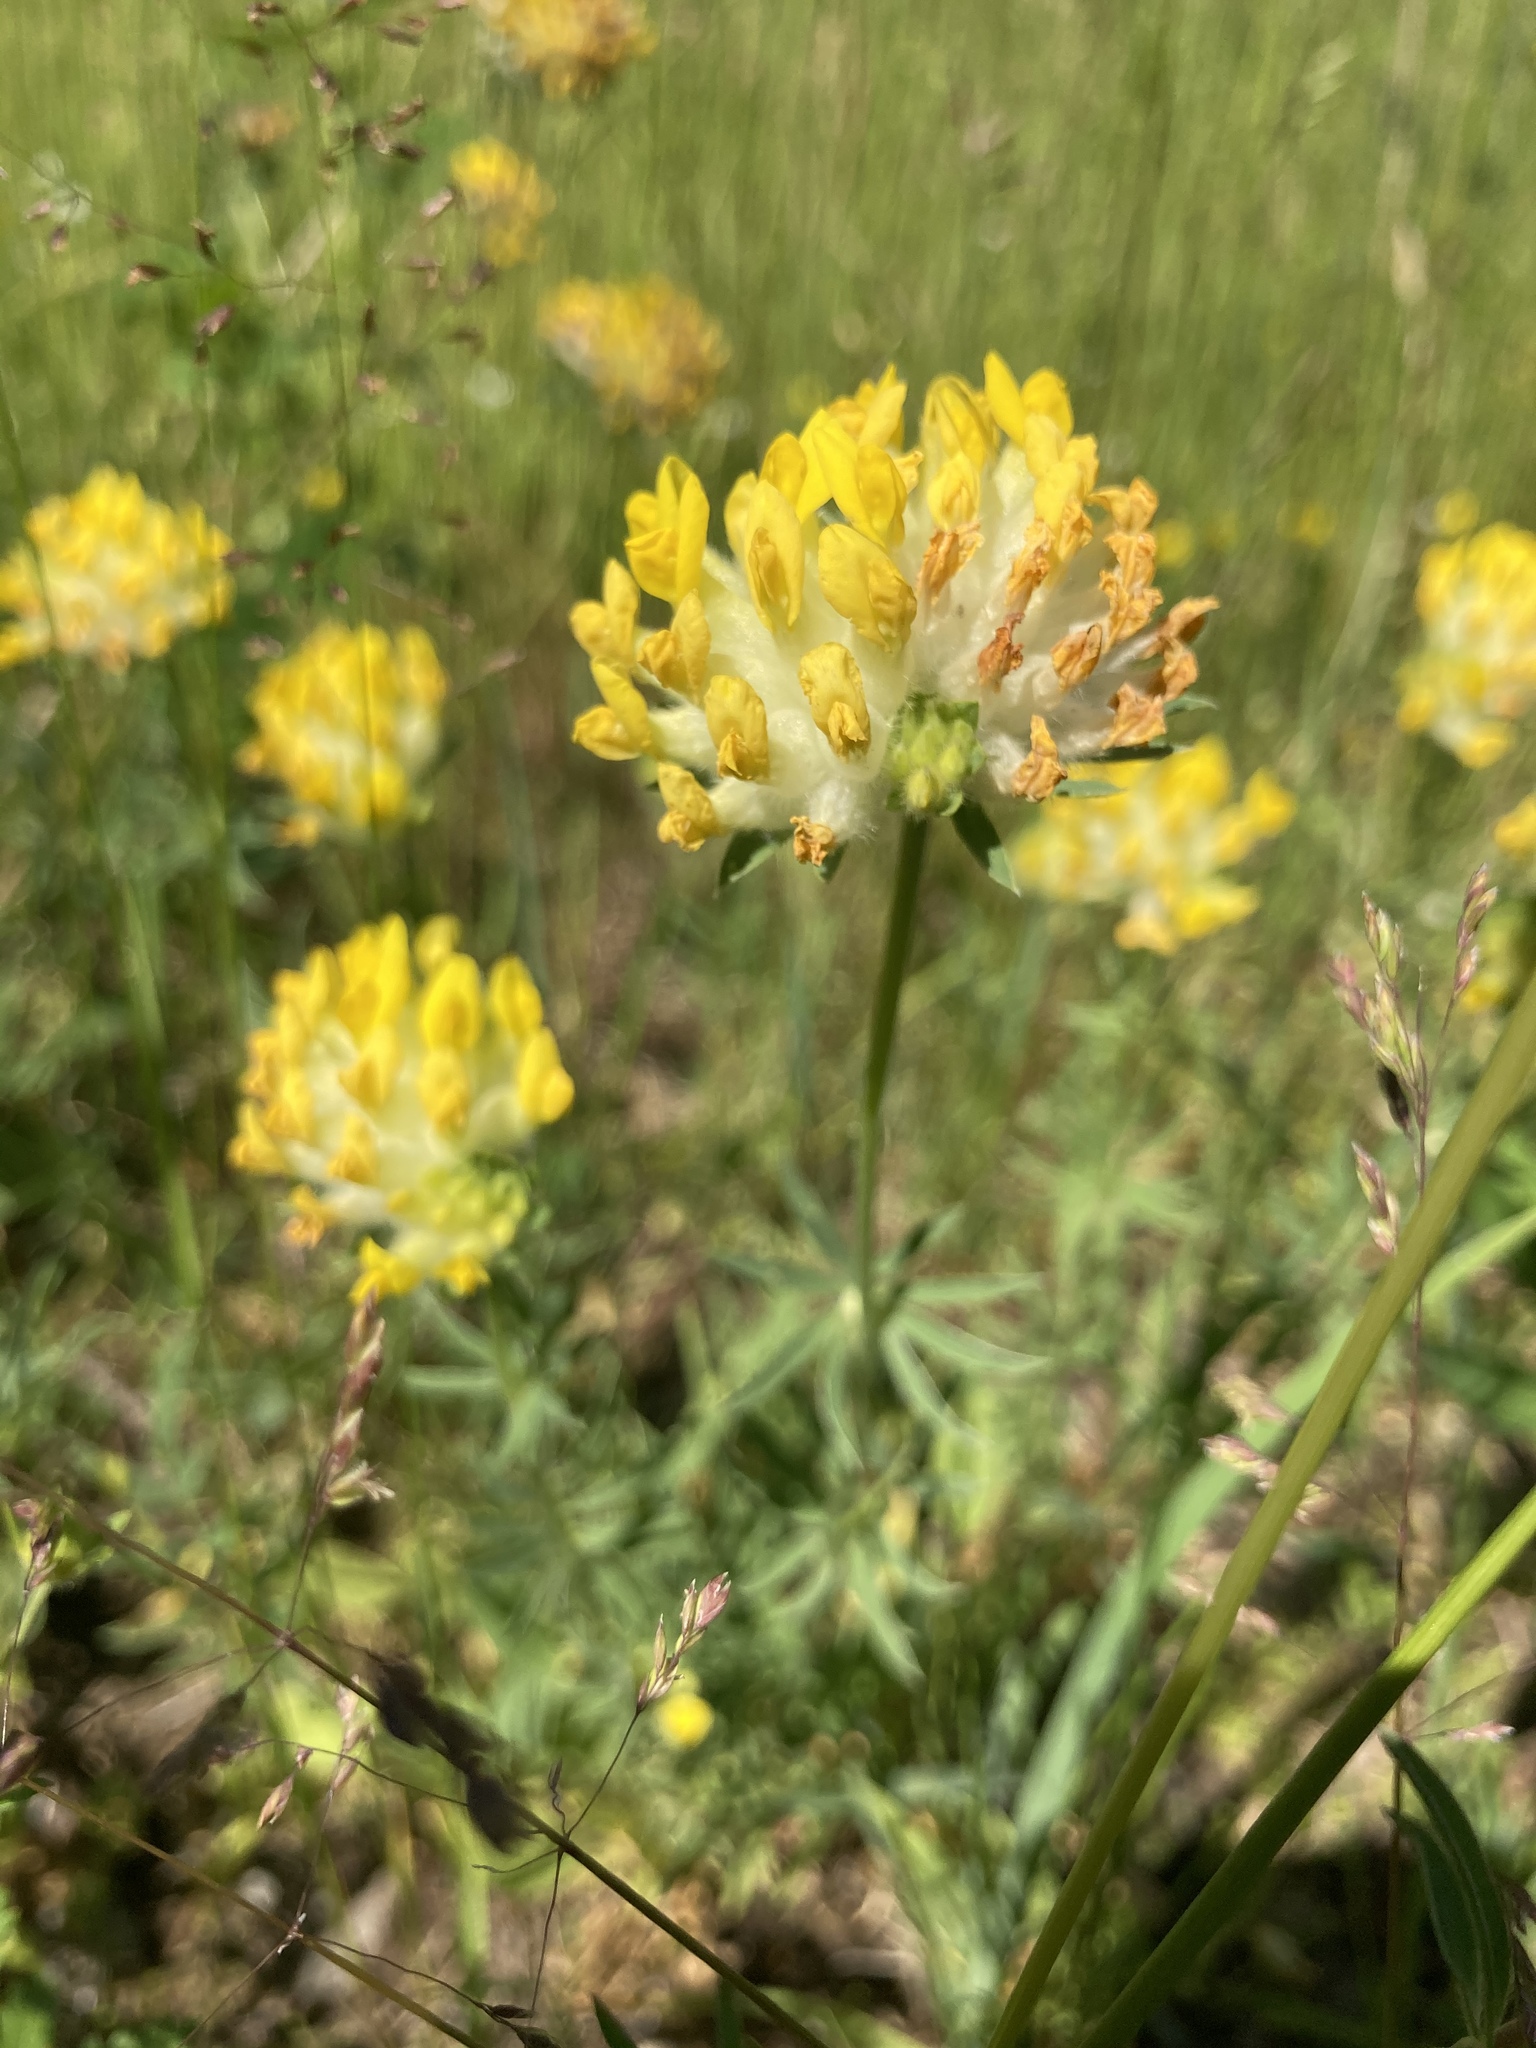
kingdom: Plantae
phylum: Tracheophyta
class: Magnoliopsida
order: Fabales
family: Fabaceae
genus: Anthyllis
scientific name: Anthyllis vulneraria
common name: Kidney vetch
